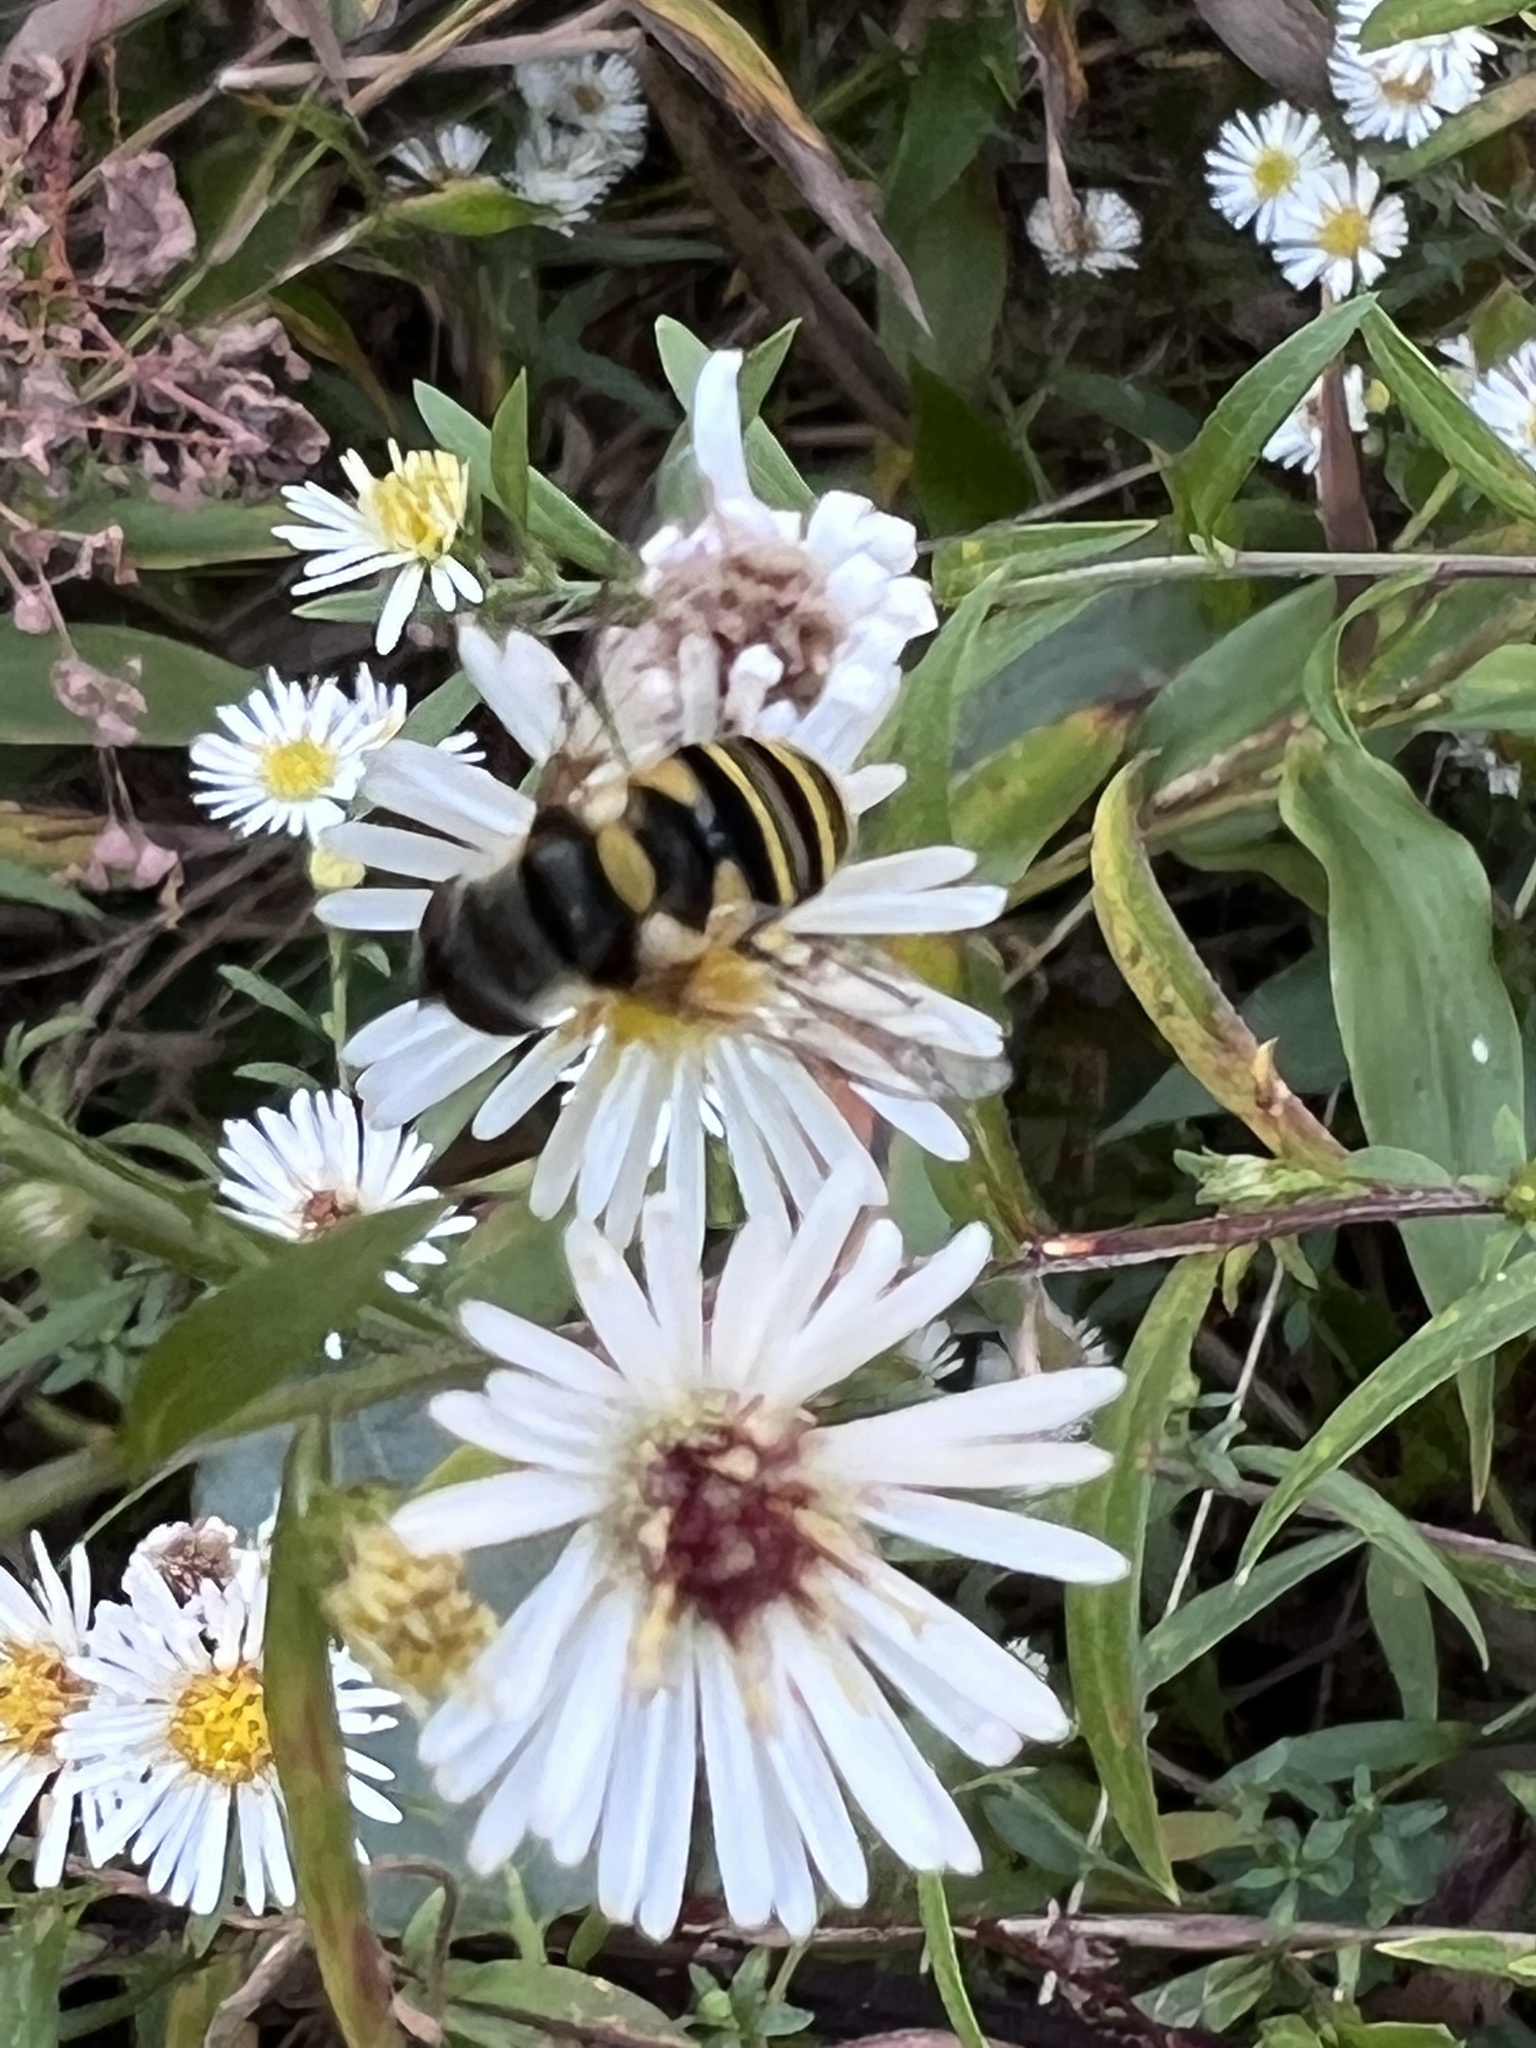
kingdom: Animalia
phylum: Arthropoda
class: Insecta
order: Diptera
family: Syrphidae
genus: Eristalis
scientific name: Eristalis transversa
